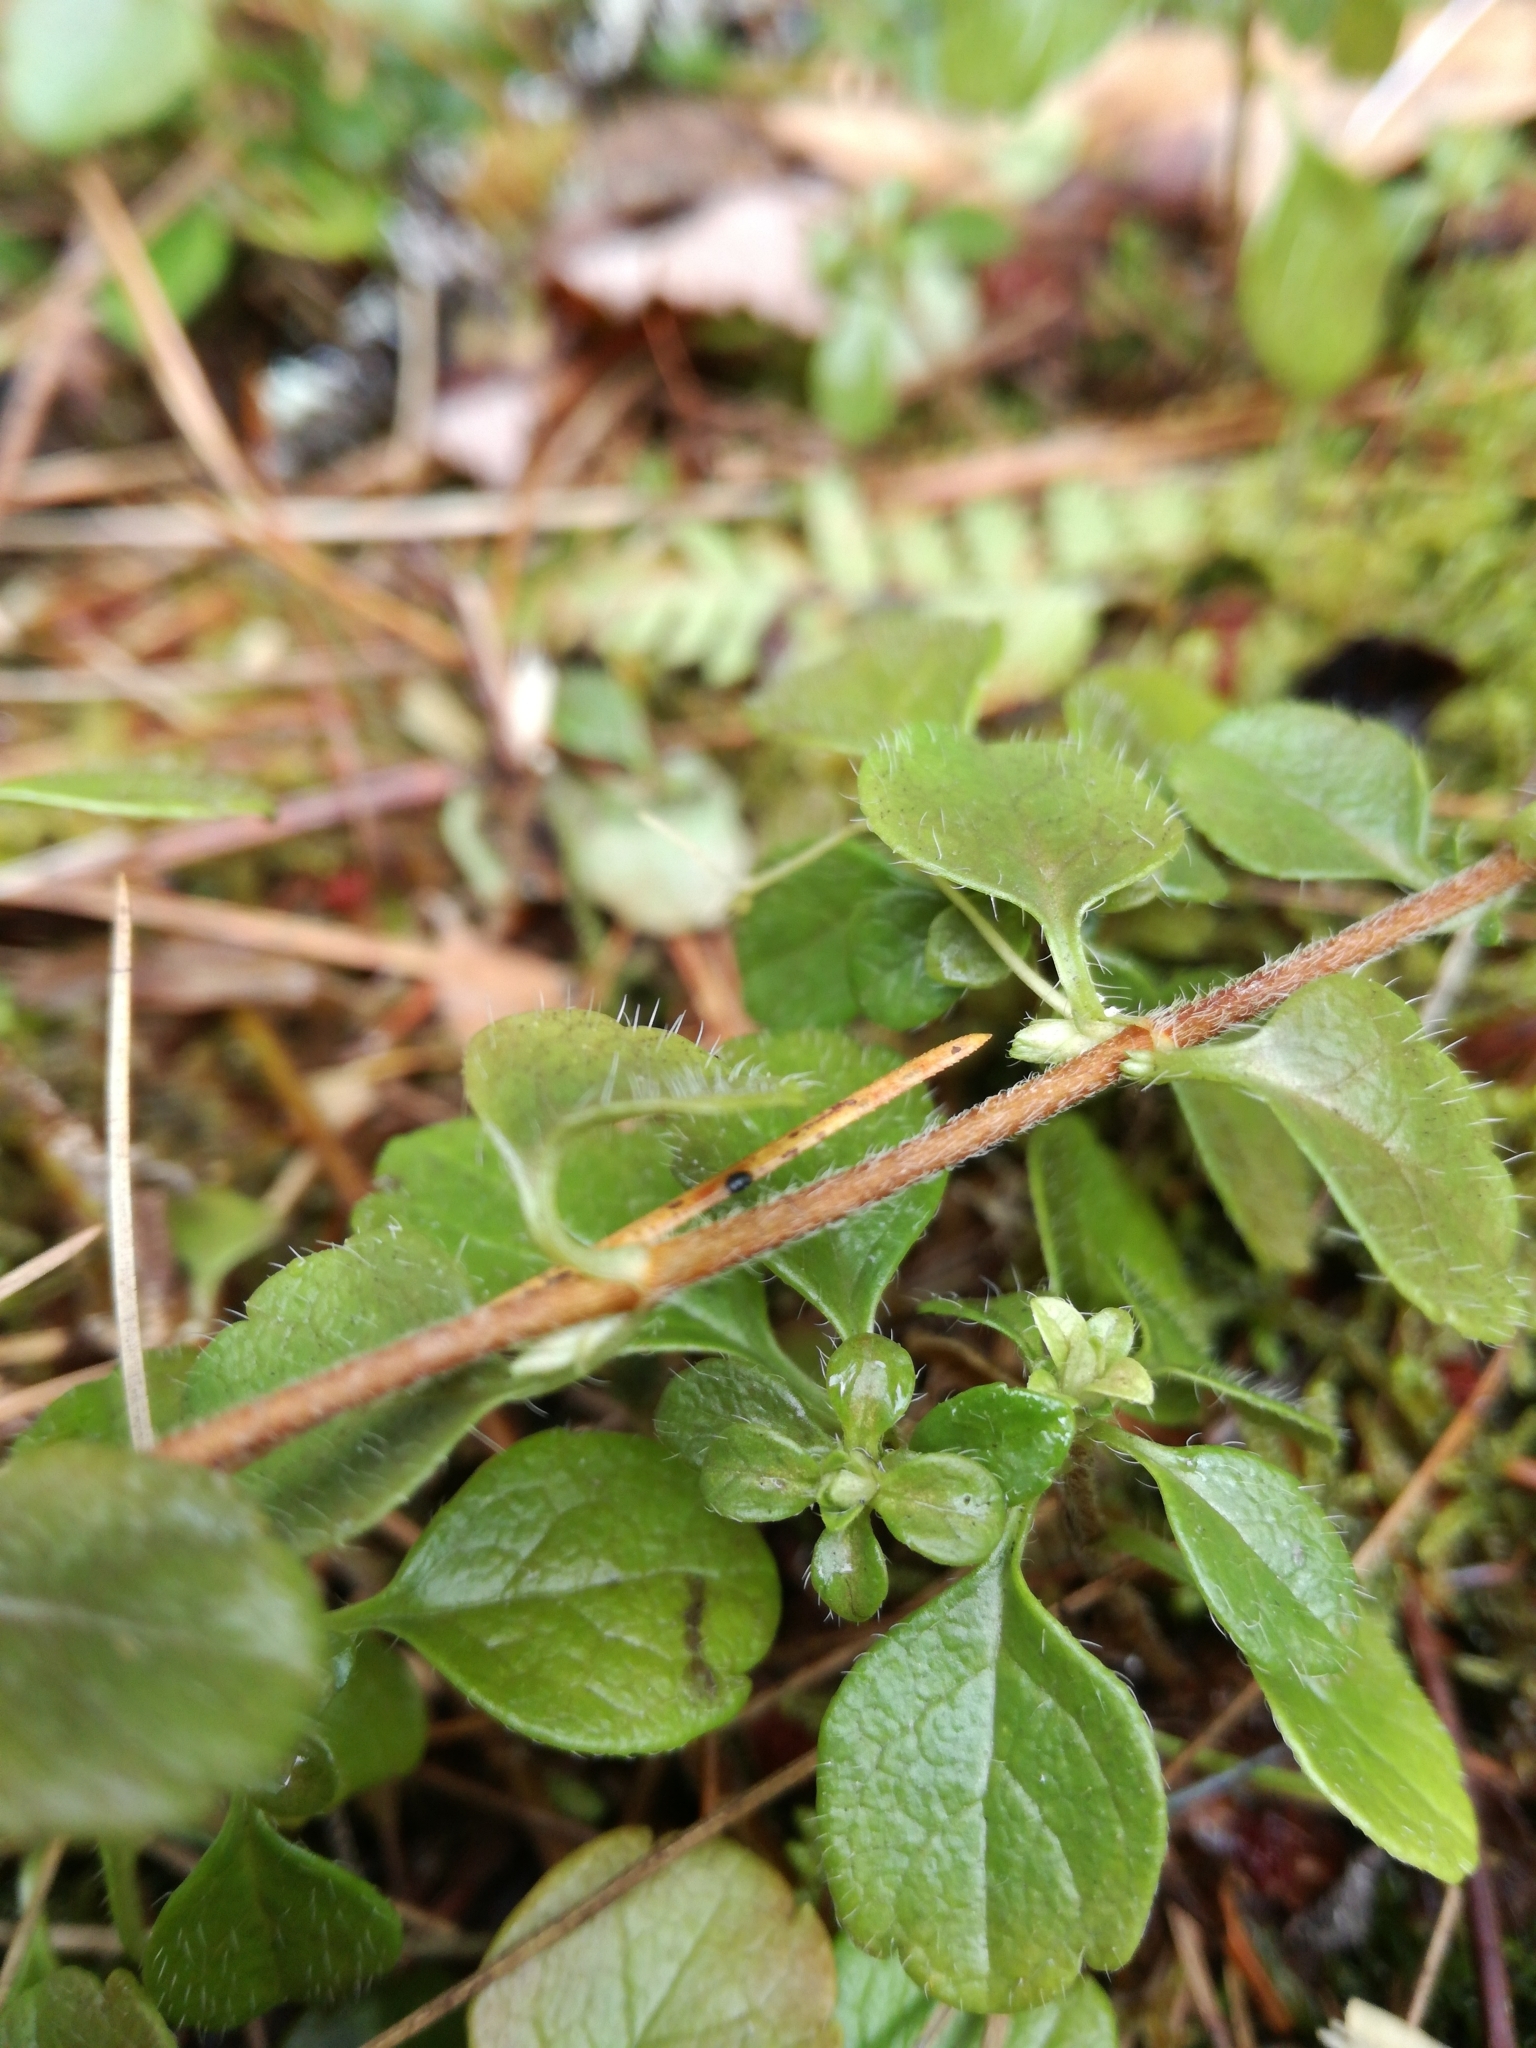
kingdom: Plantae
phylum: Tracheophyta
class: Magnoliopsida
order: Dipsacales
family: Caprifoliaceae
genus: Linnaea
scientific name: Linnaea borealis
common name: Twinflower
